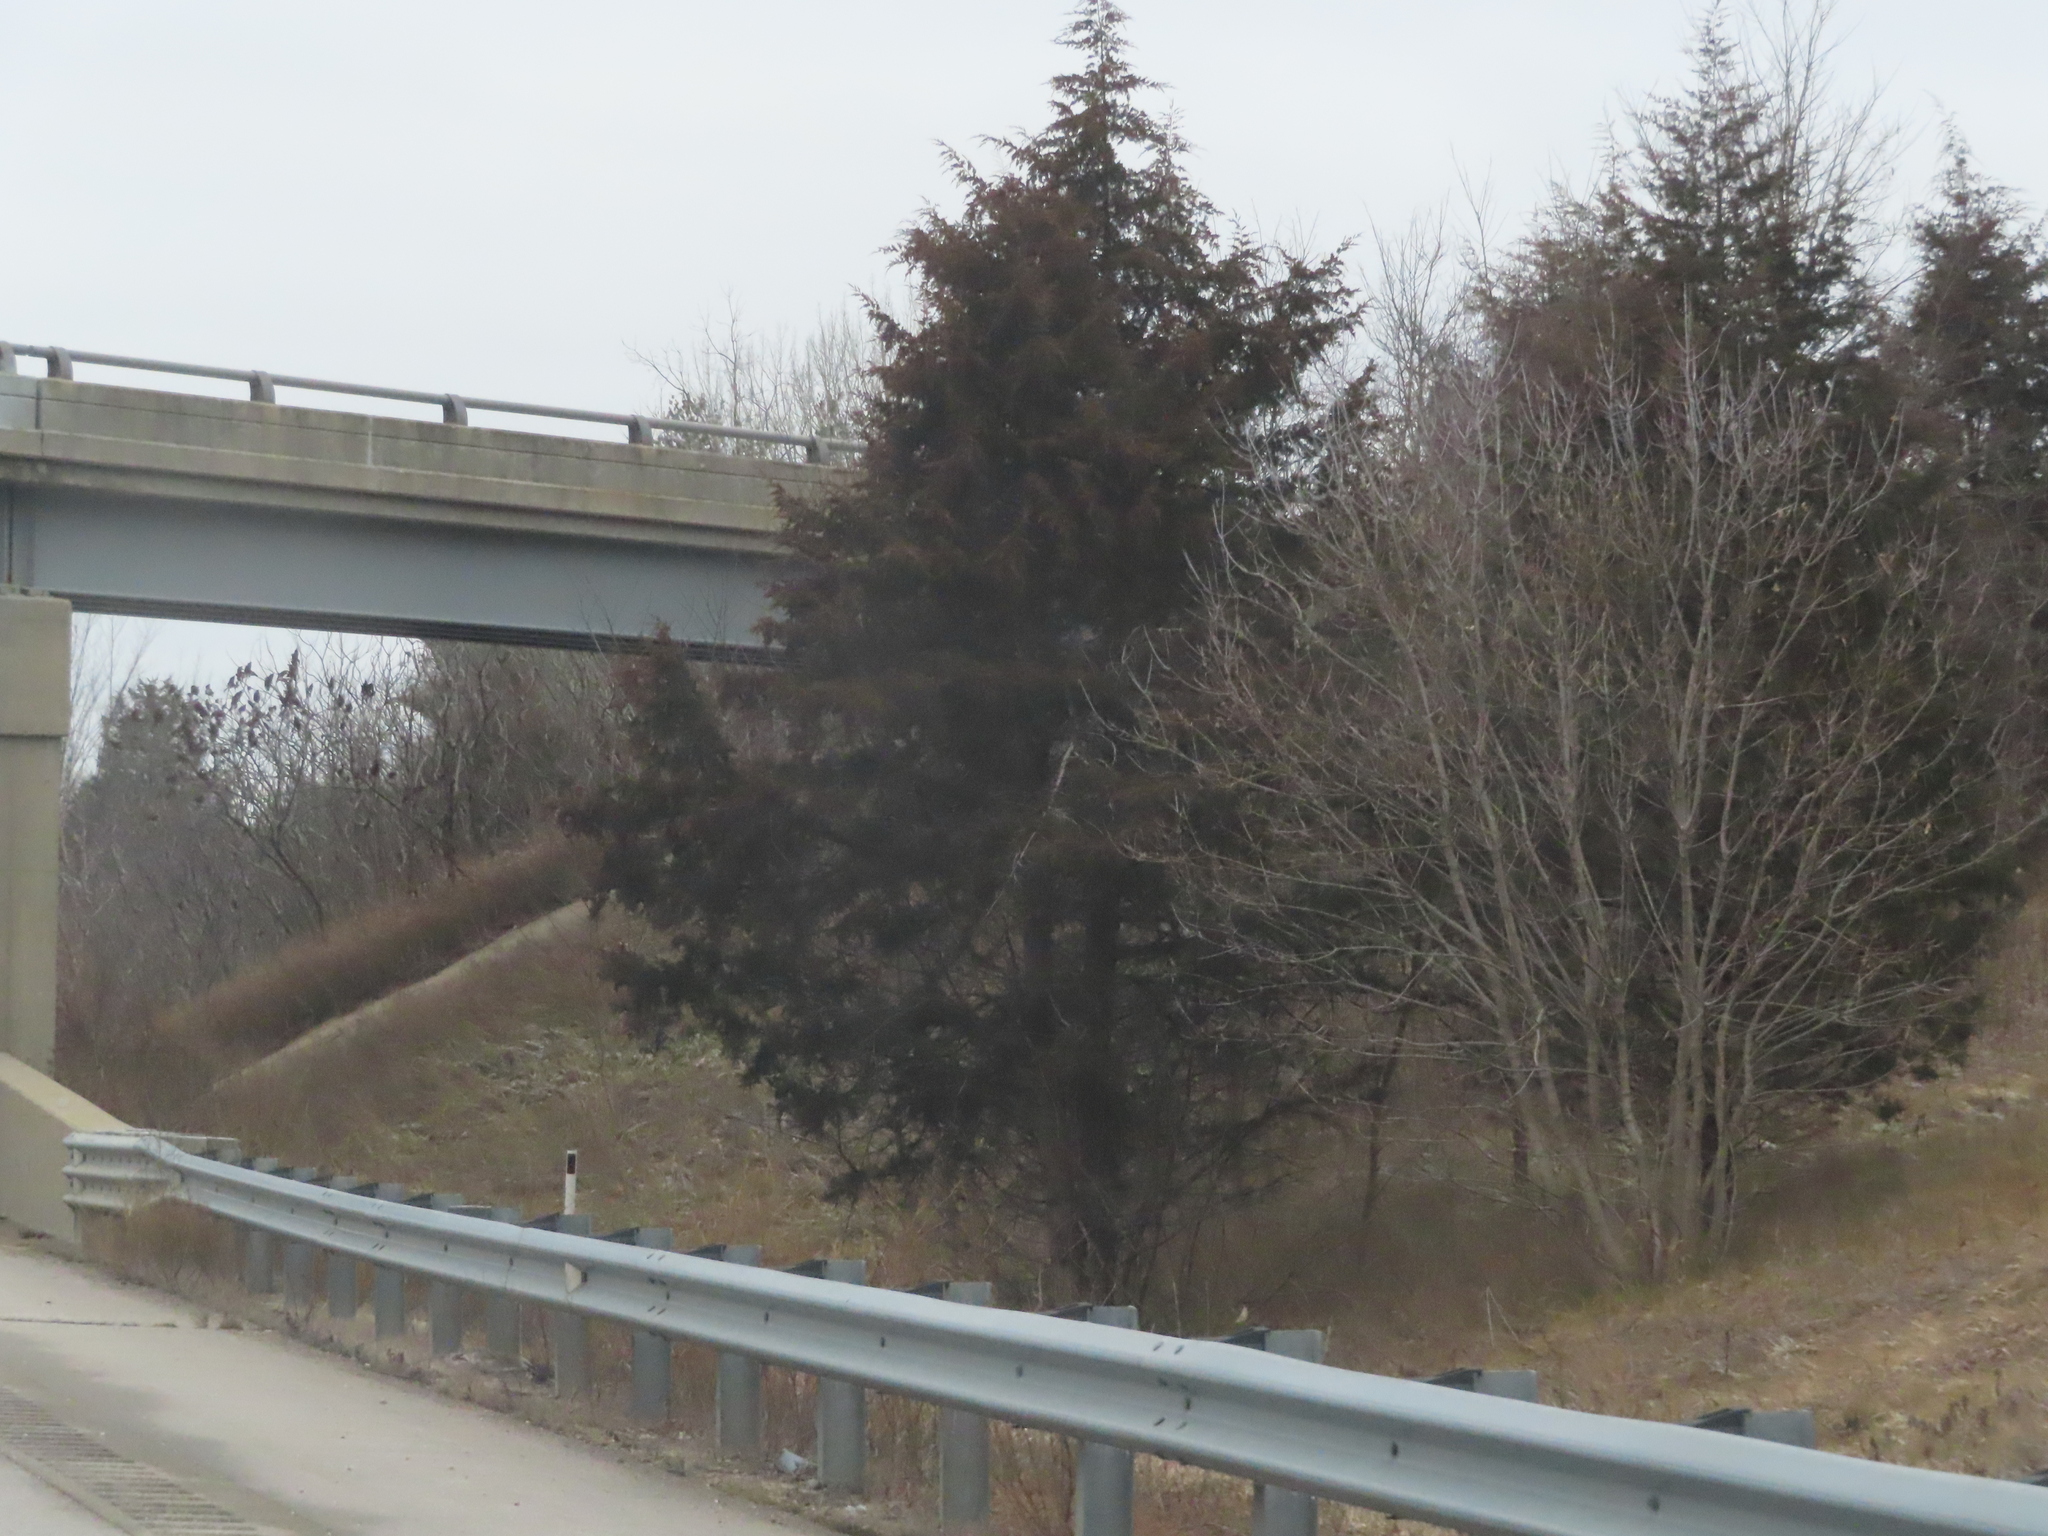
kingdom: Plantae
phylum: Tracheophyta
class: Pinopsida
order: Pinales
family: Cupressaceae
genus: Juniperus
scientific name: Juniperus virginiana
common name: Red juniper
